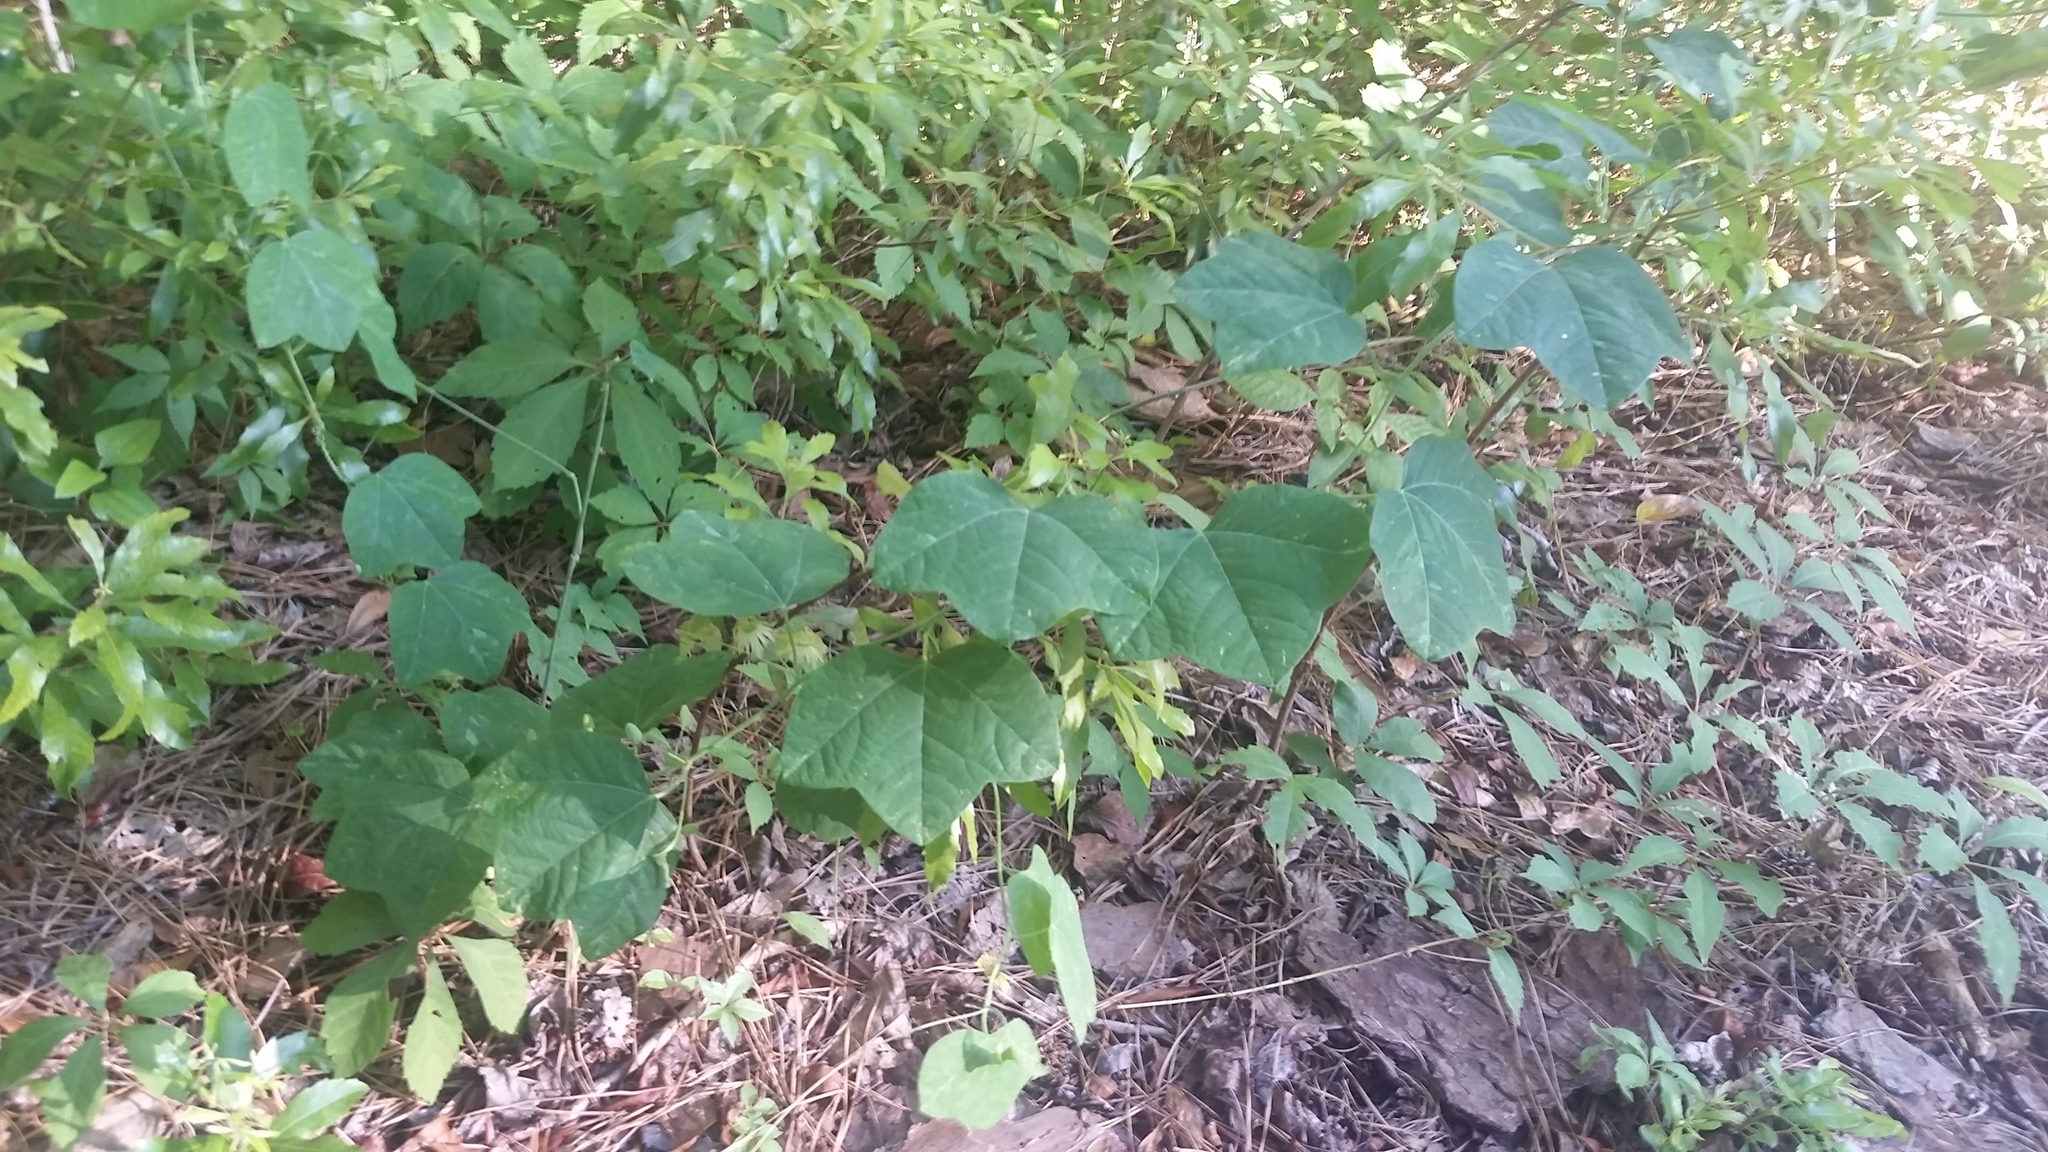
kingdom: Plantae
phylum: Tracheophyta
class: Magnoliopsida
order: Malpighiales
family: Passifloraceae
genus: Passiflora
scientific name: Passiflora lutea
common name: Yellow passionflower
